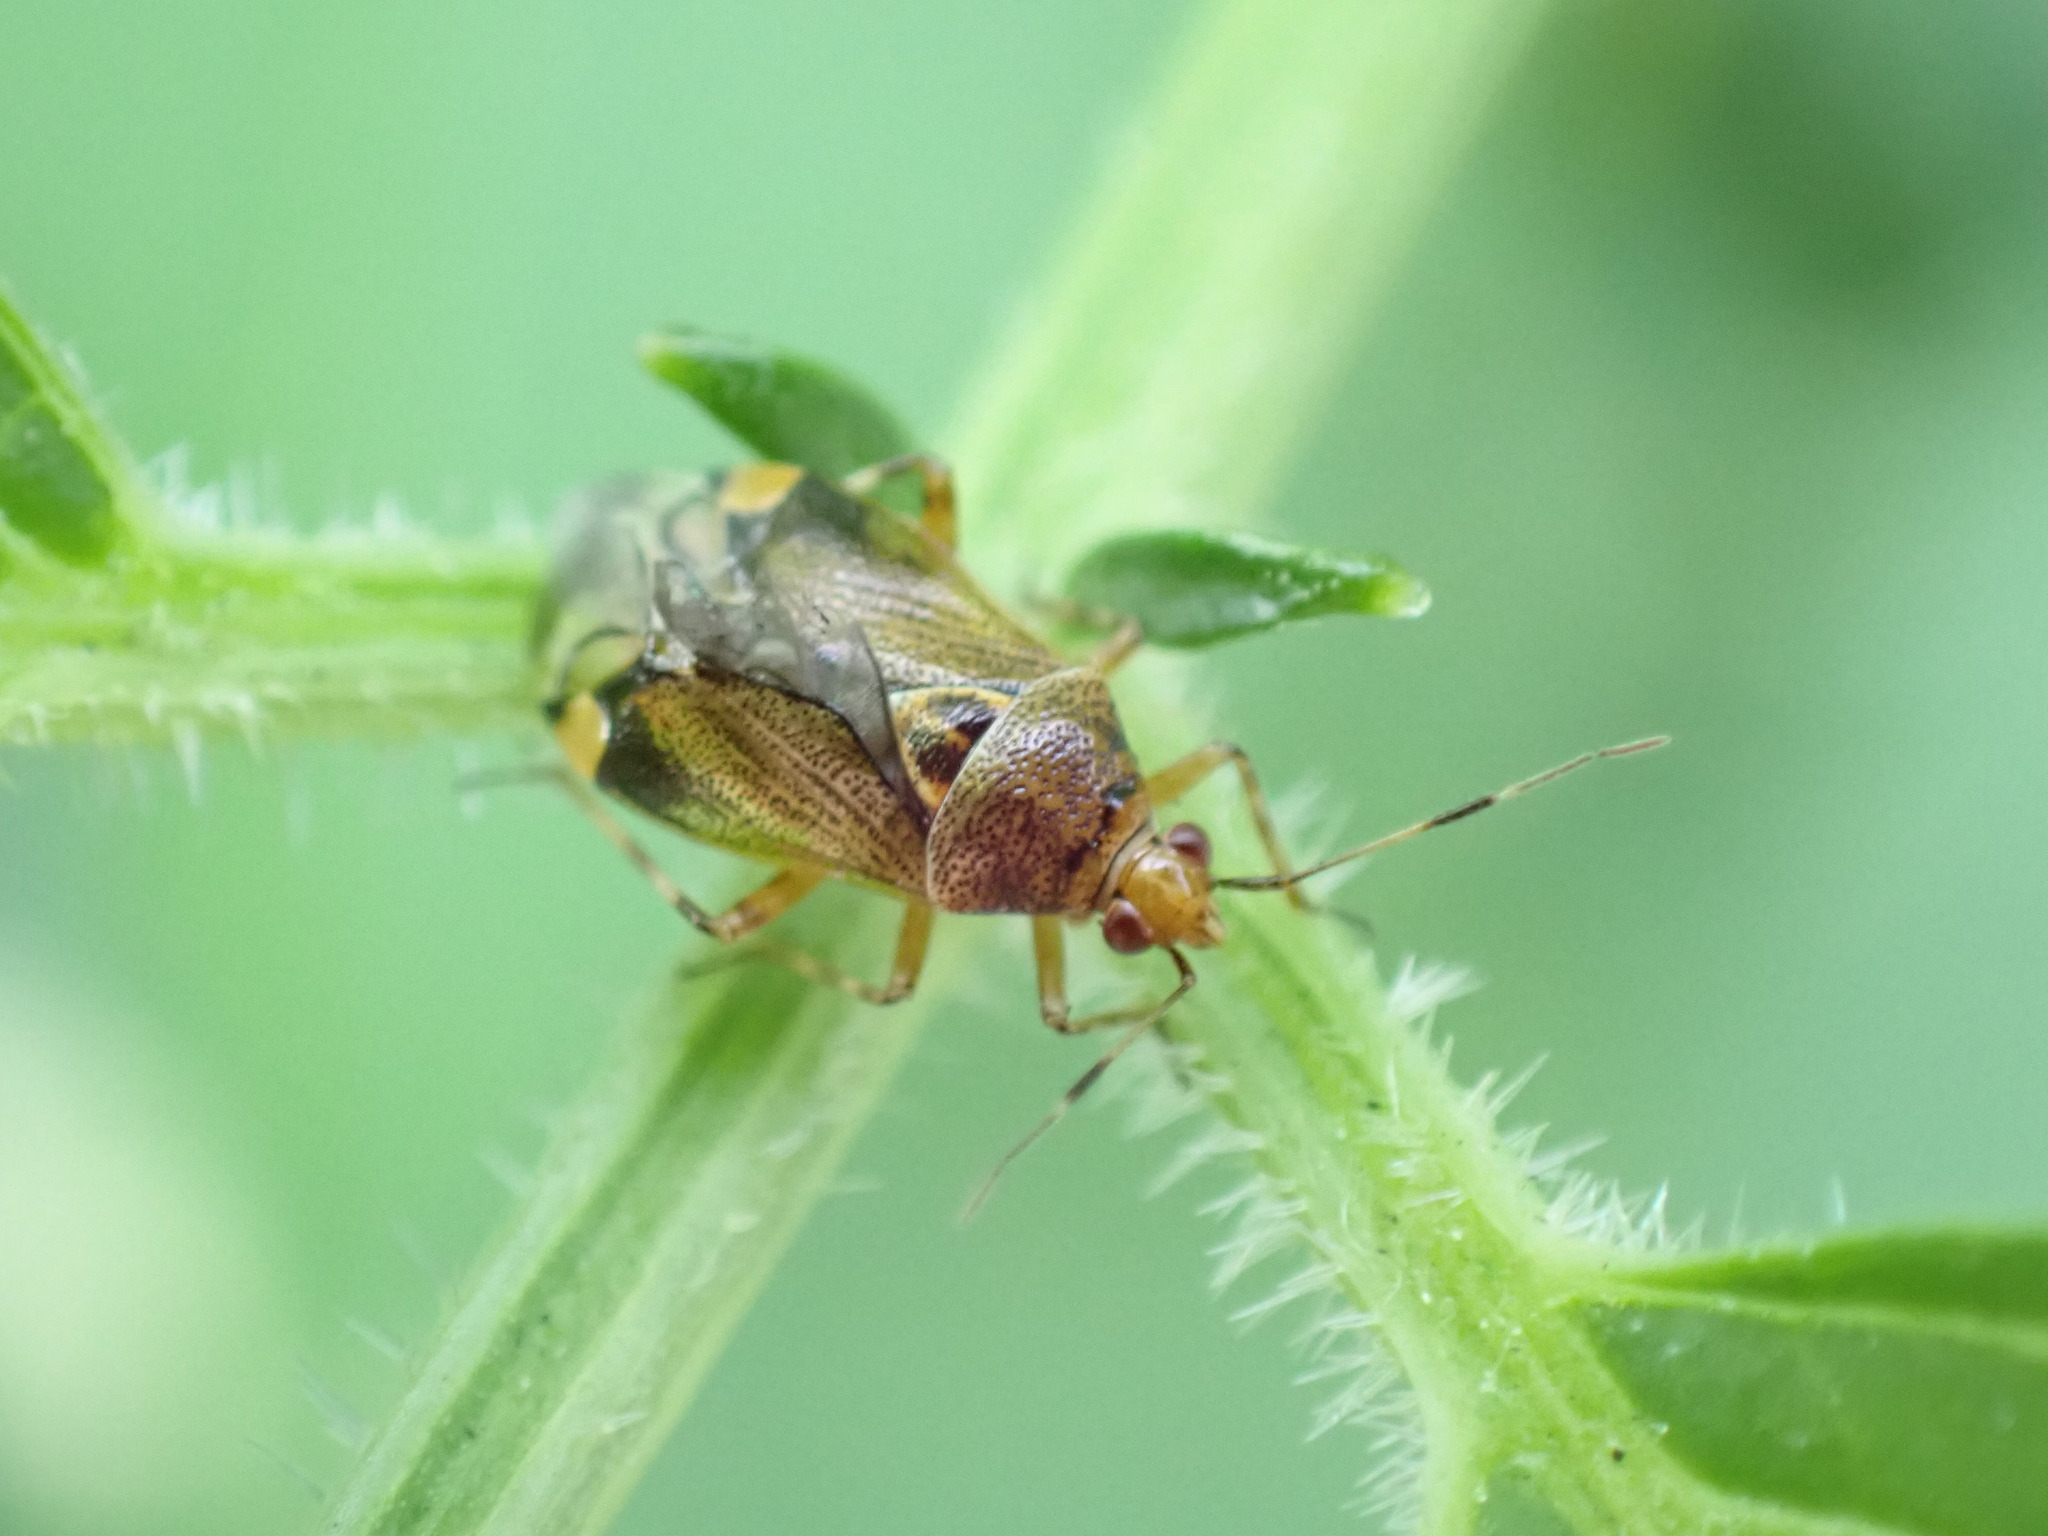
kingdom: Animalia
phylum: Arthropoda
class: Insecta
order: Hemiptera
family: Miridae
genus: Deraeocoris
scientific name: Deraeocoris flavilinea
